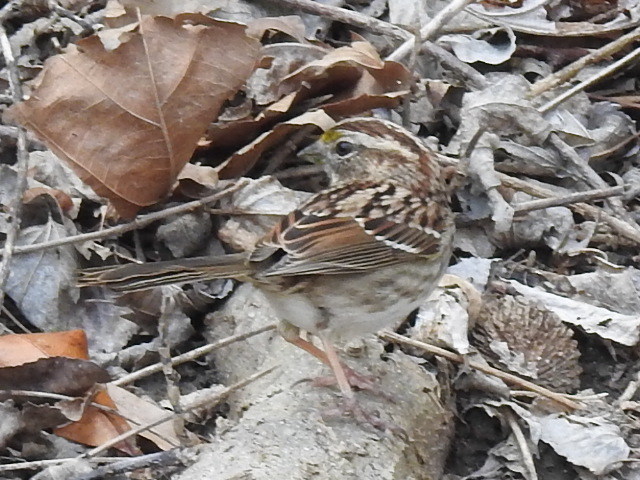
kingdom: Animalia
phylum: Chordata
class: Aves
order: Passeriformes
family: Passerellidae
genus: Zonotrichia
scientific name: Zonotrichia albicollis
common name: White-throated sparrow
